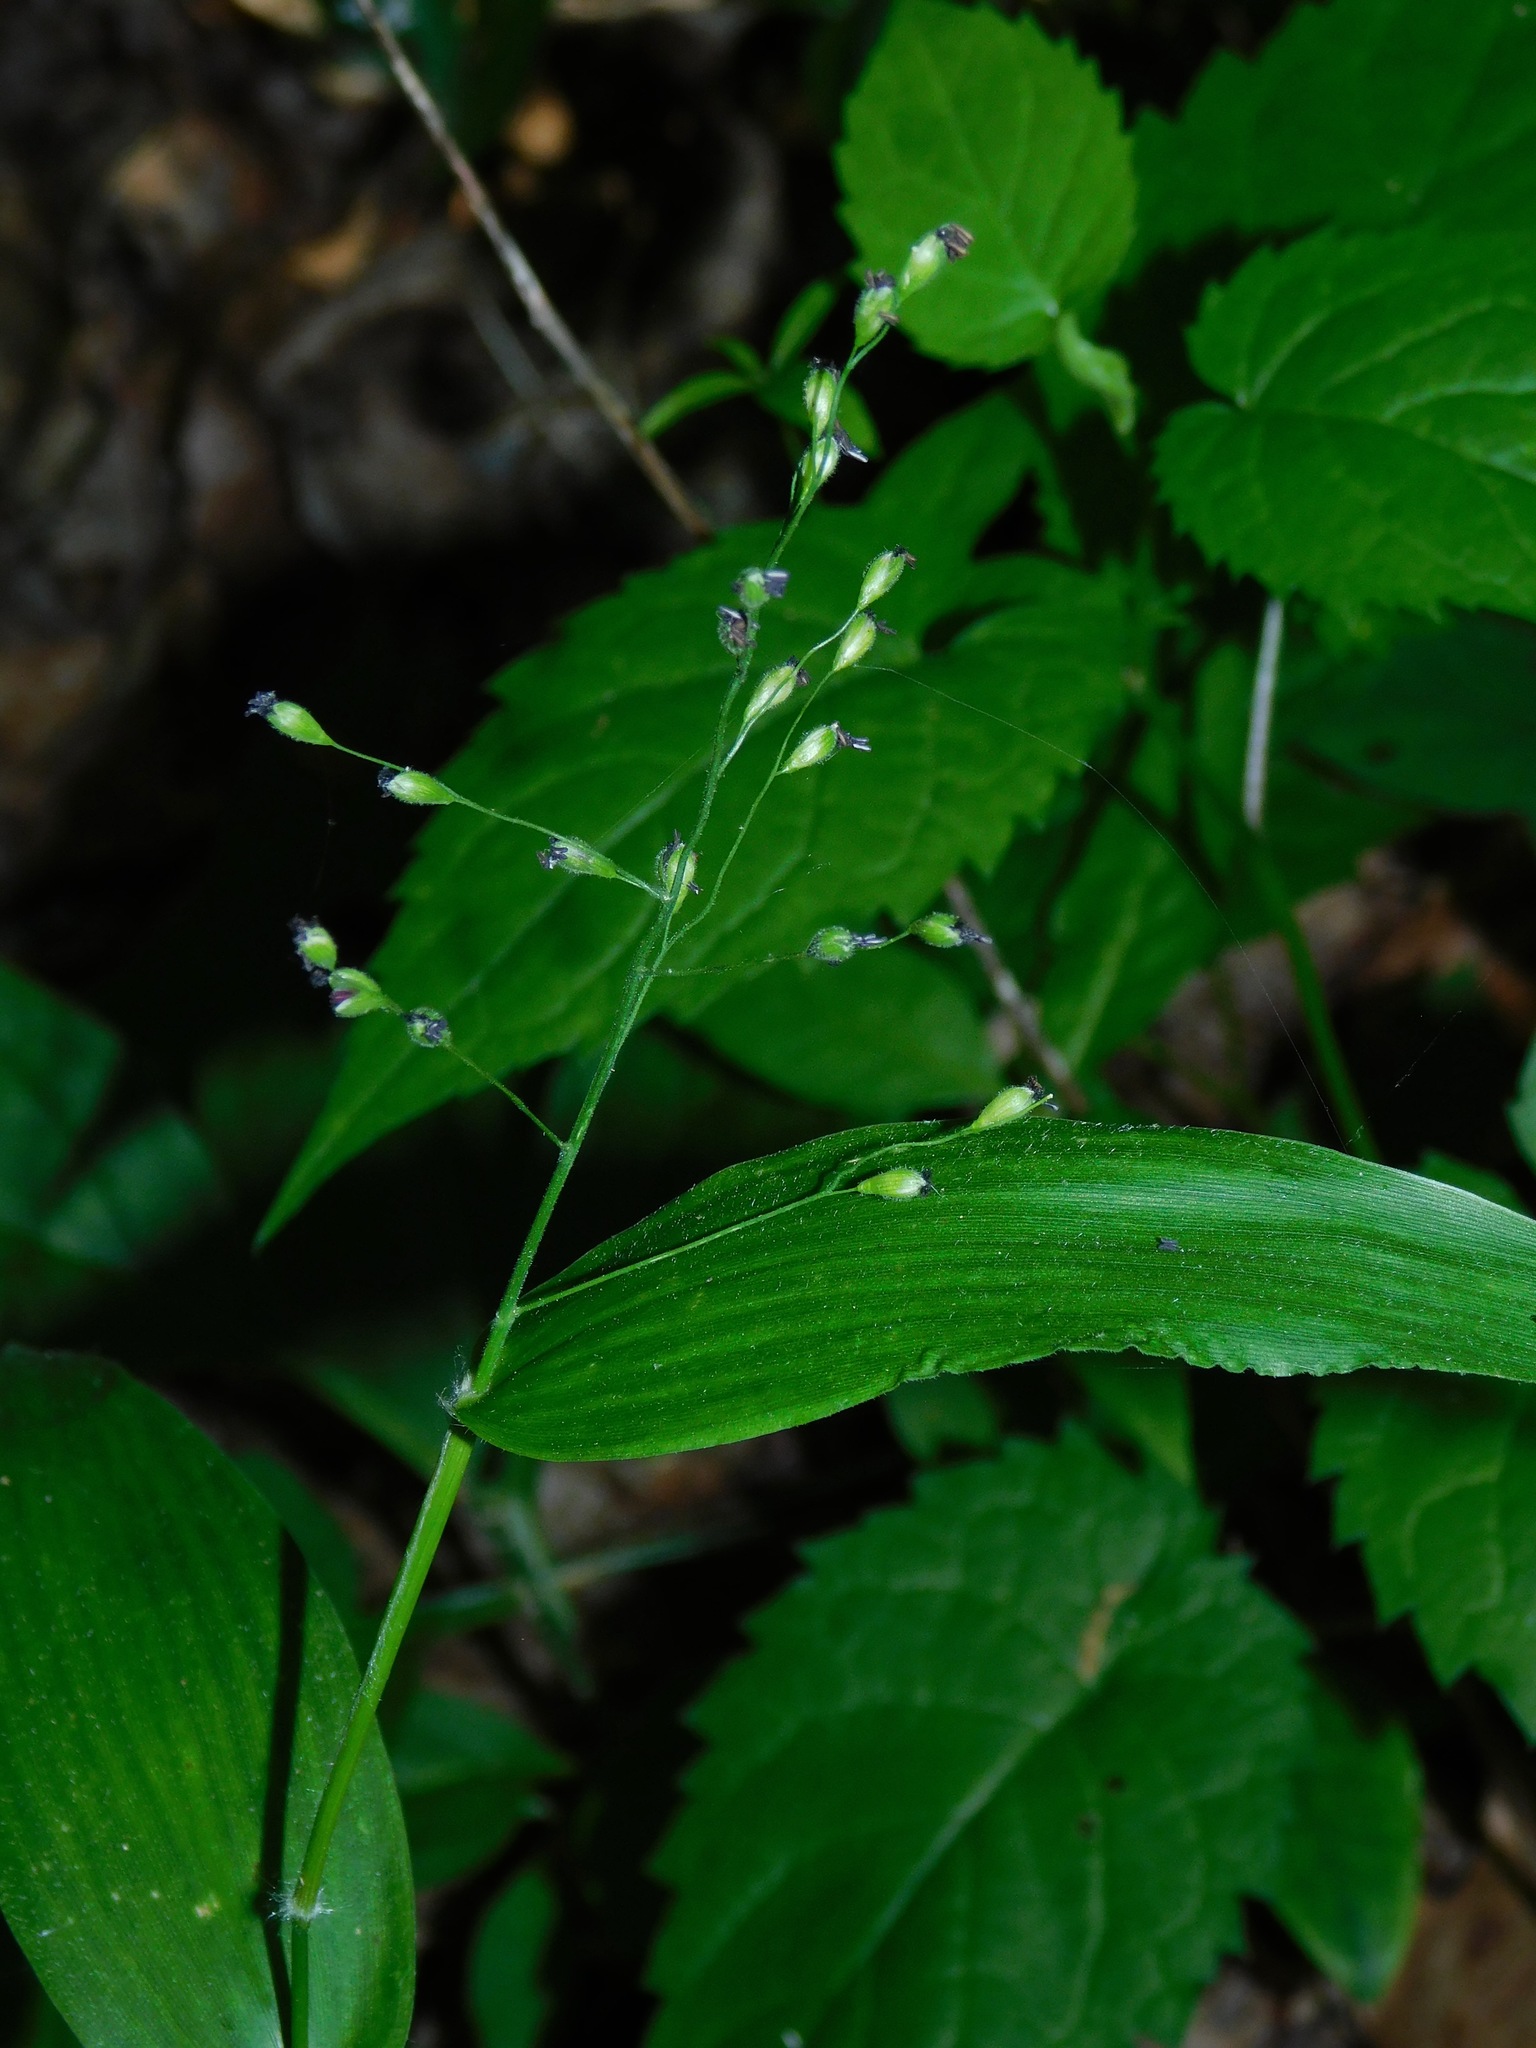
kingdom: Plantae
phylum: Tracheophyta
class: Liliopsida
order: Poales
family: Poaceae
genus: Dichanthelium
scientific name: Dichanthelium boscii
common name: Bosc's panic grass
